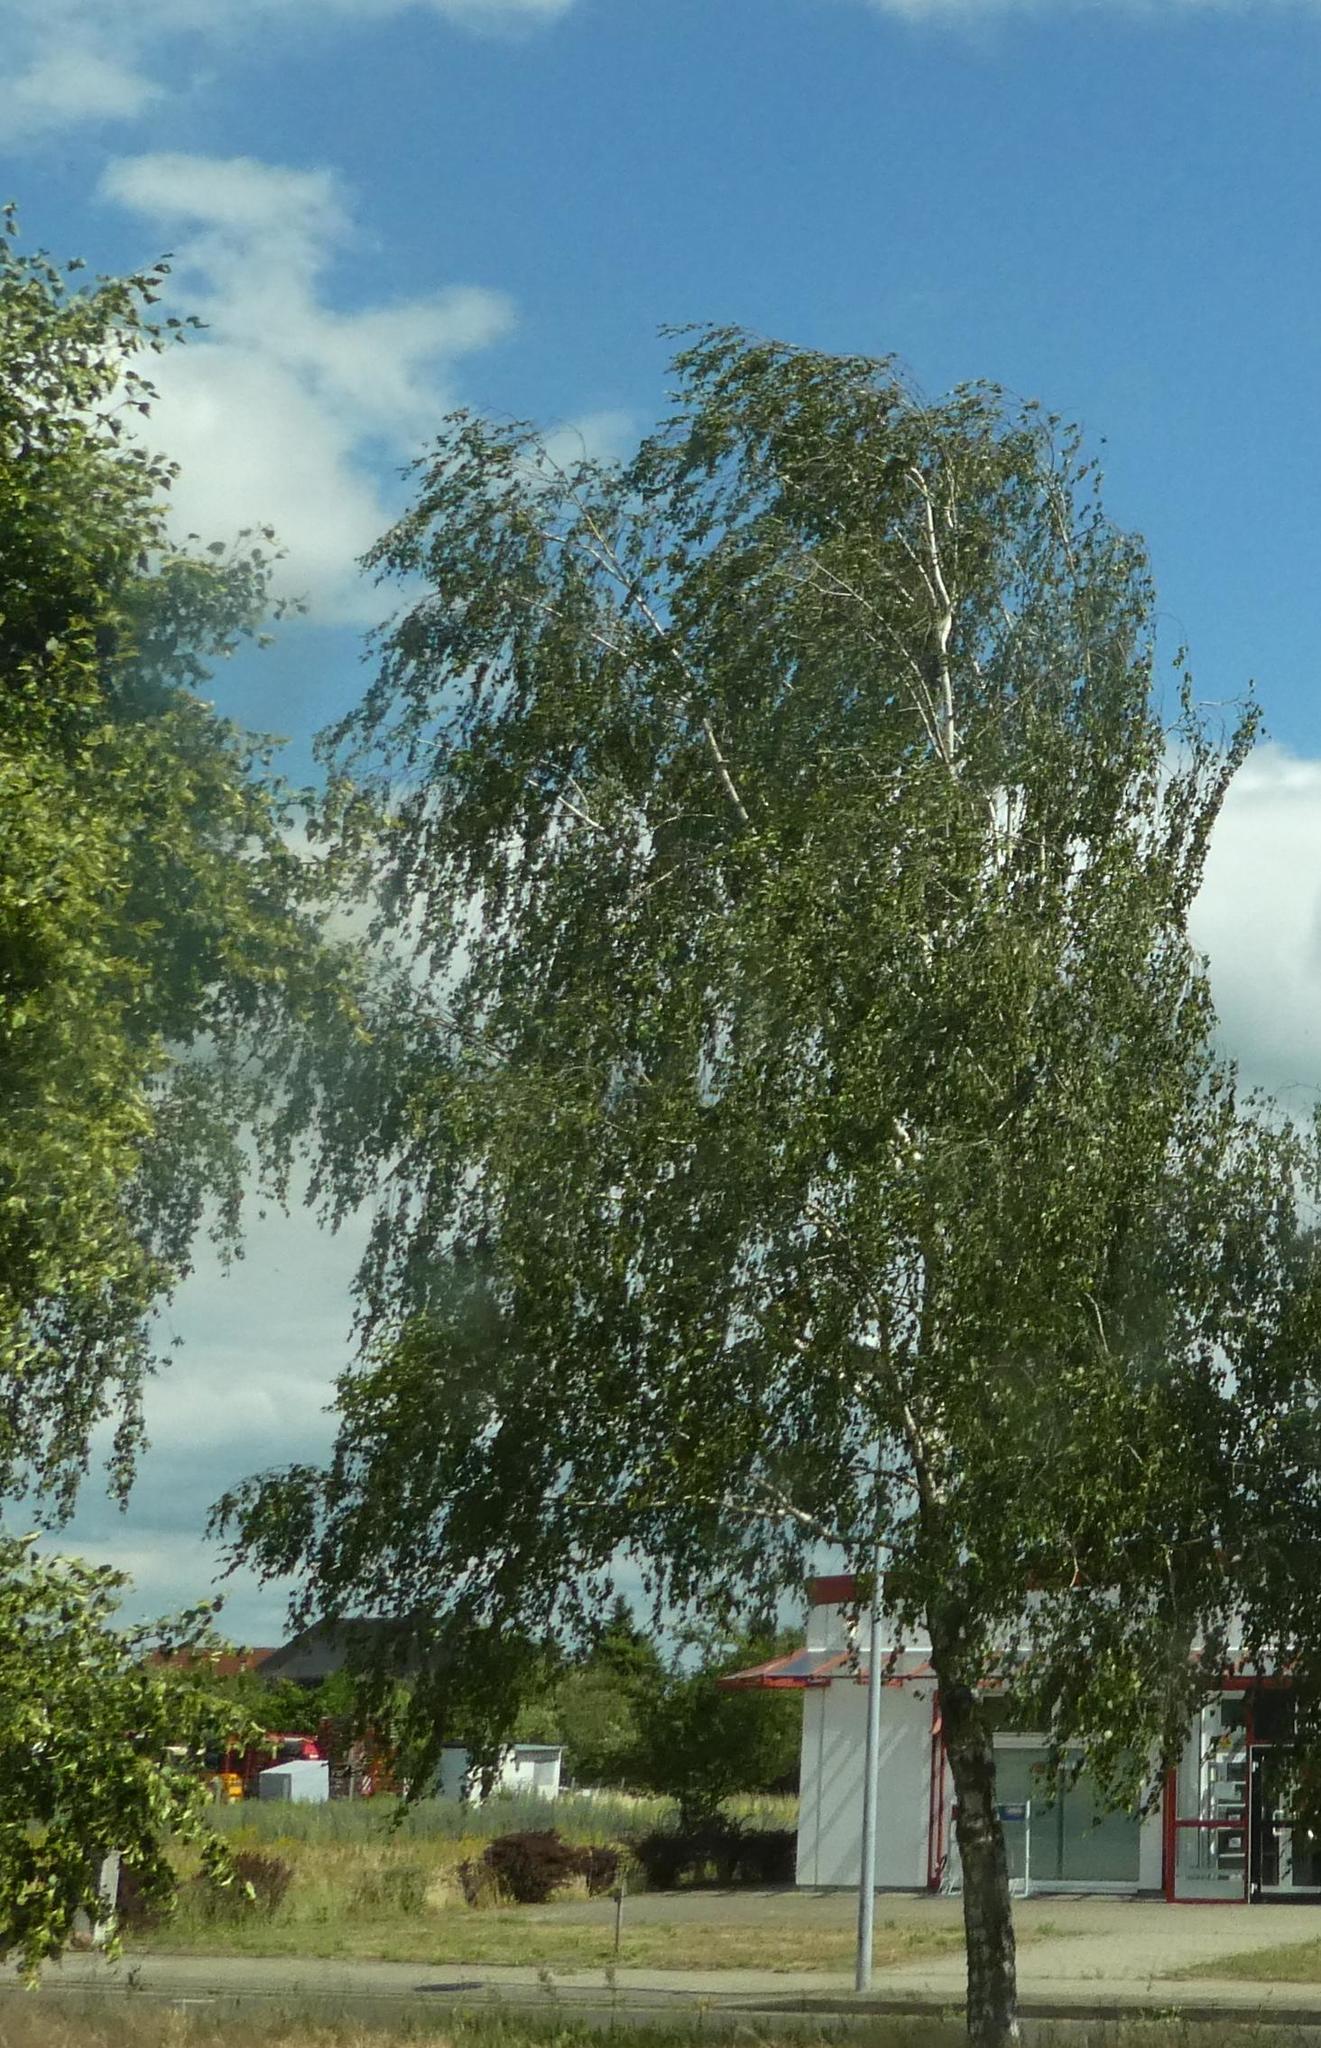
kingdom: Plantae
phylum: Tracheophyta
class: Magnoliopsida
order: Fagales
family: Betulaceae
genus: Betula
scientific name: Betula pendula
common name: Silver birch
